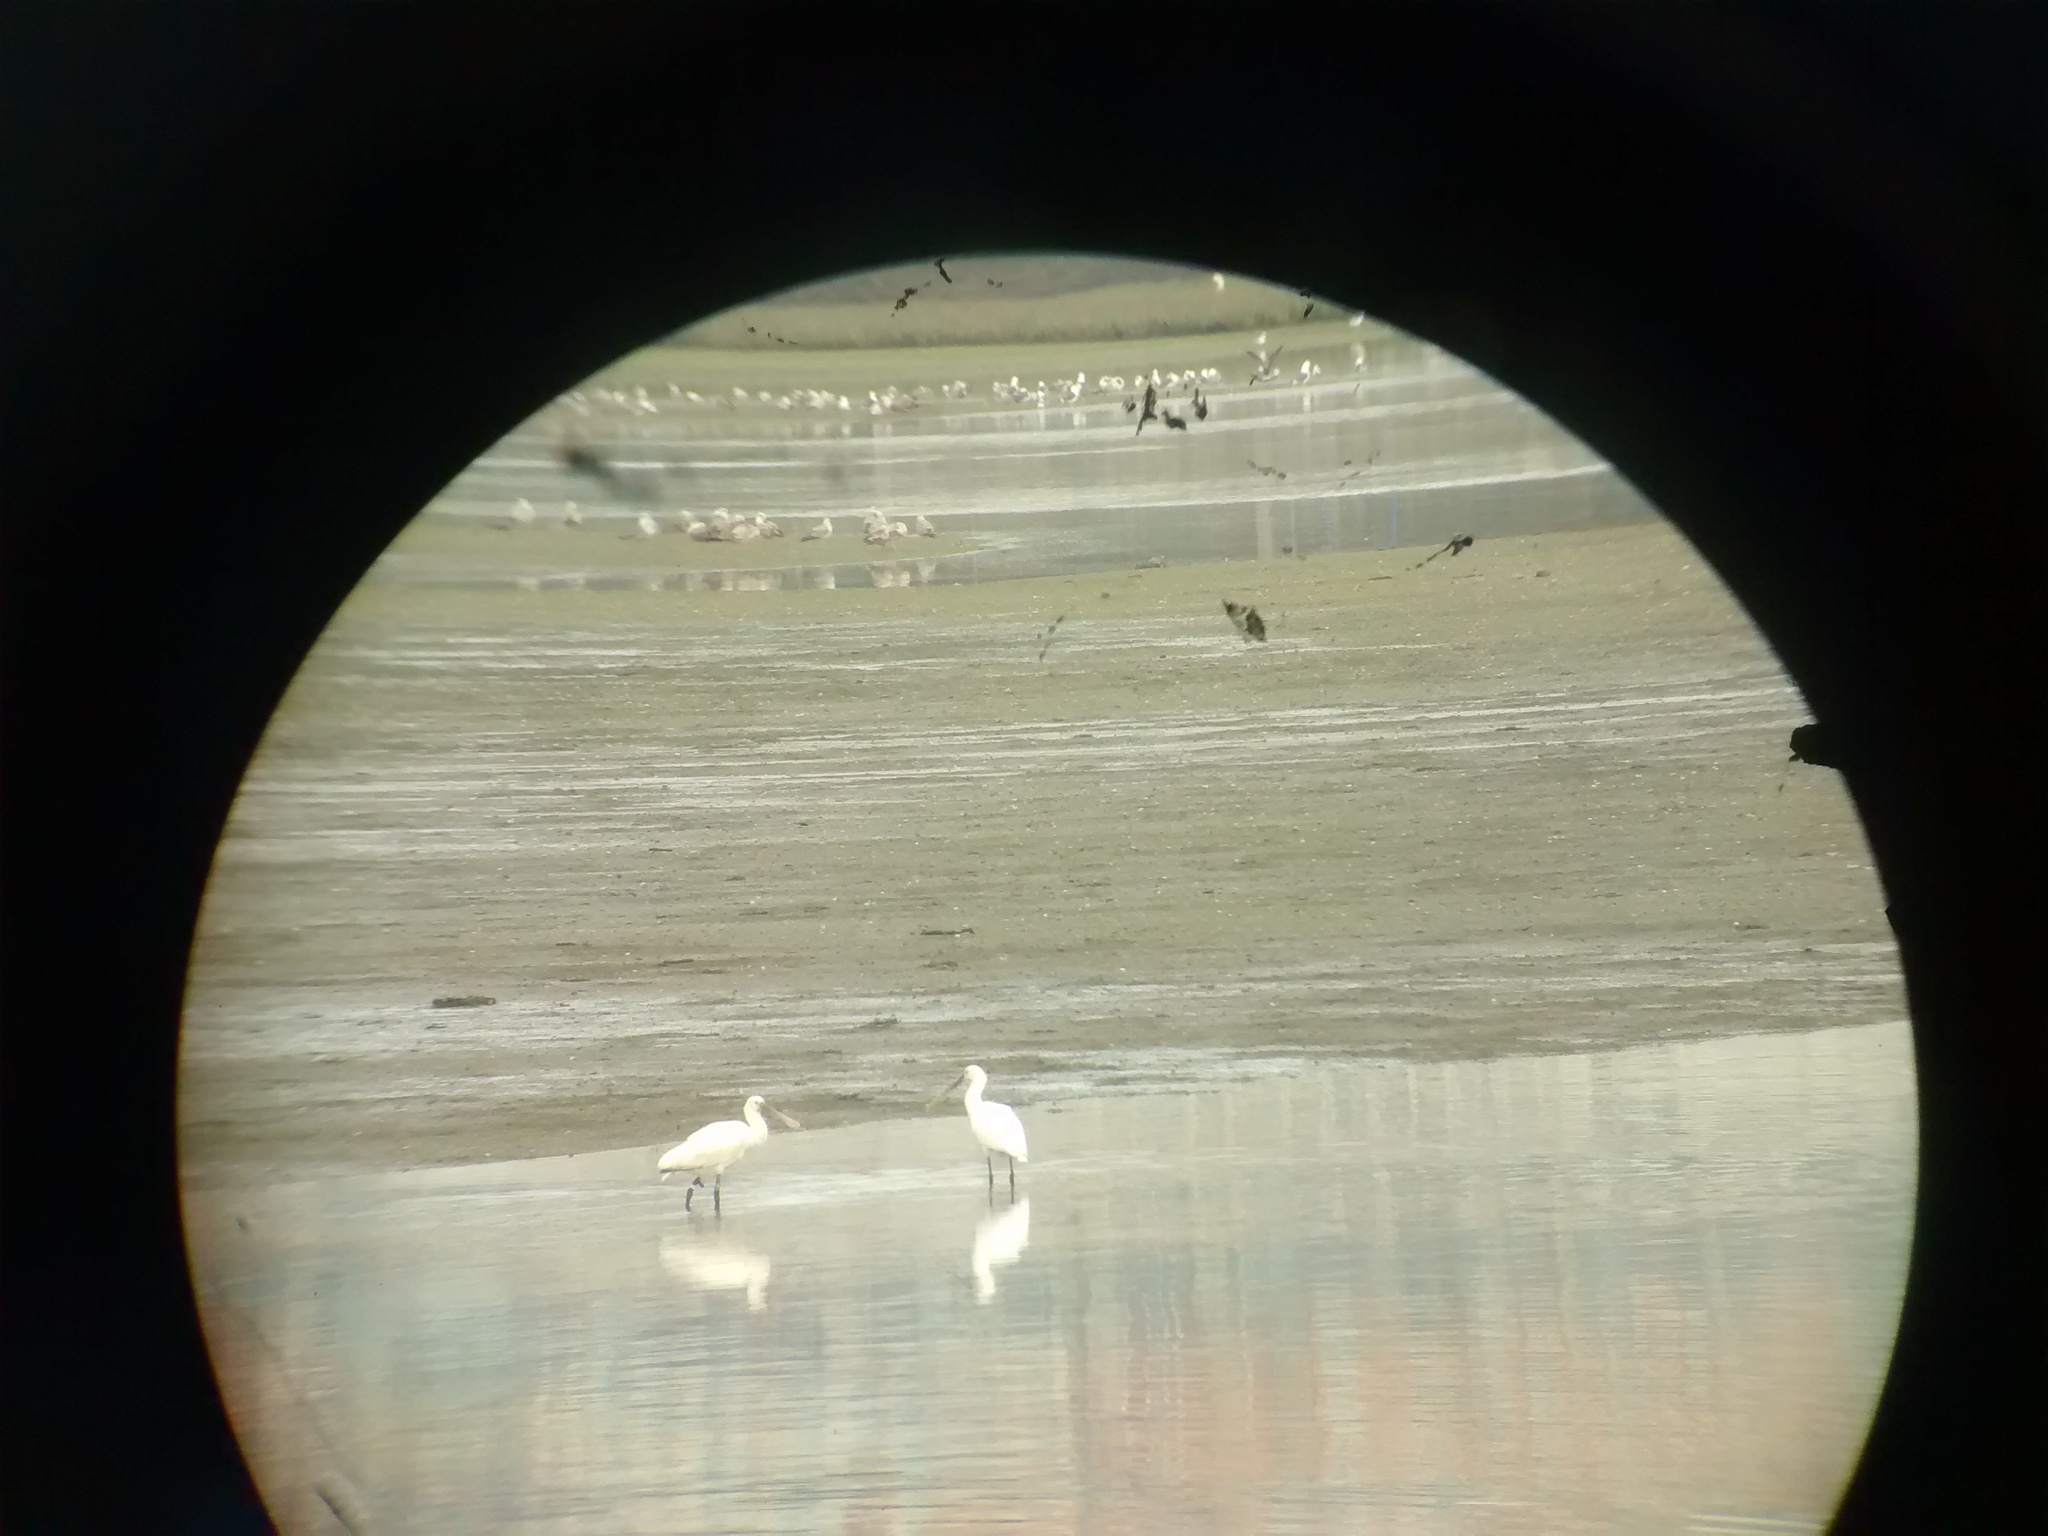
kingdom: Animalia
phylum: Chordata
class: Aves
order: Pelecaniformes
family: Threskiornithidae
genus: Platalea
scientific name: Platalea leucorodia
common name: Eurasian spoonbill
